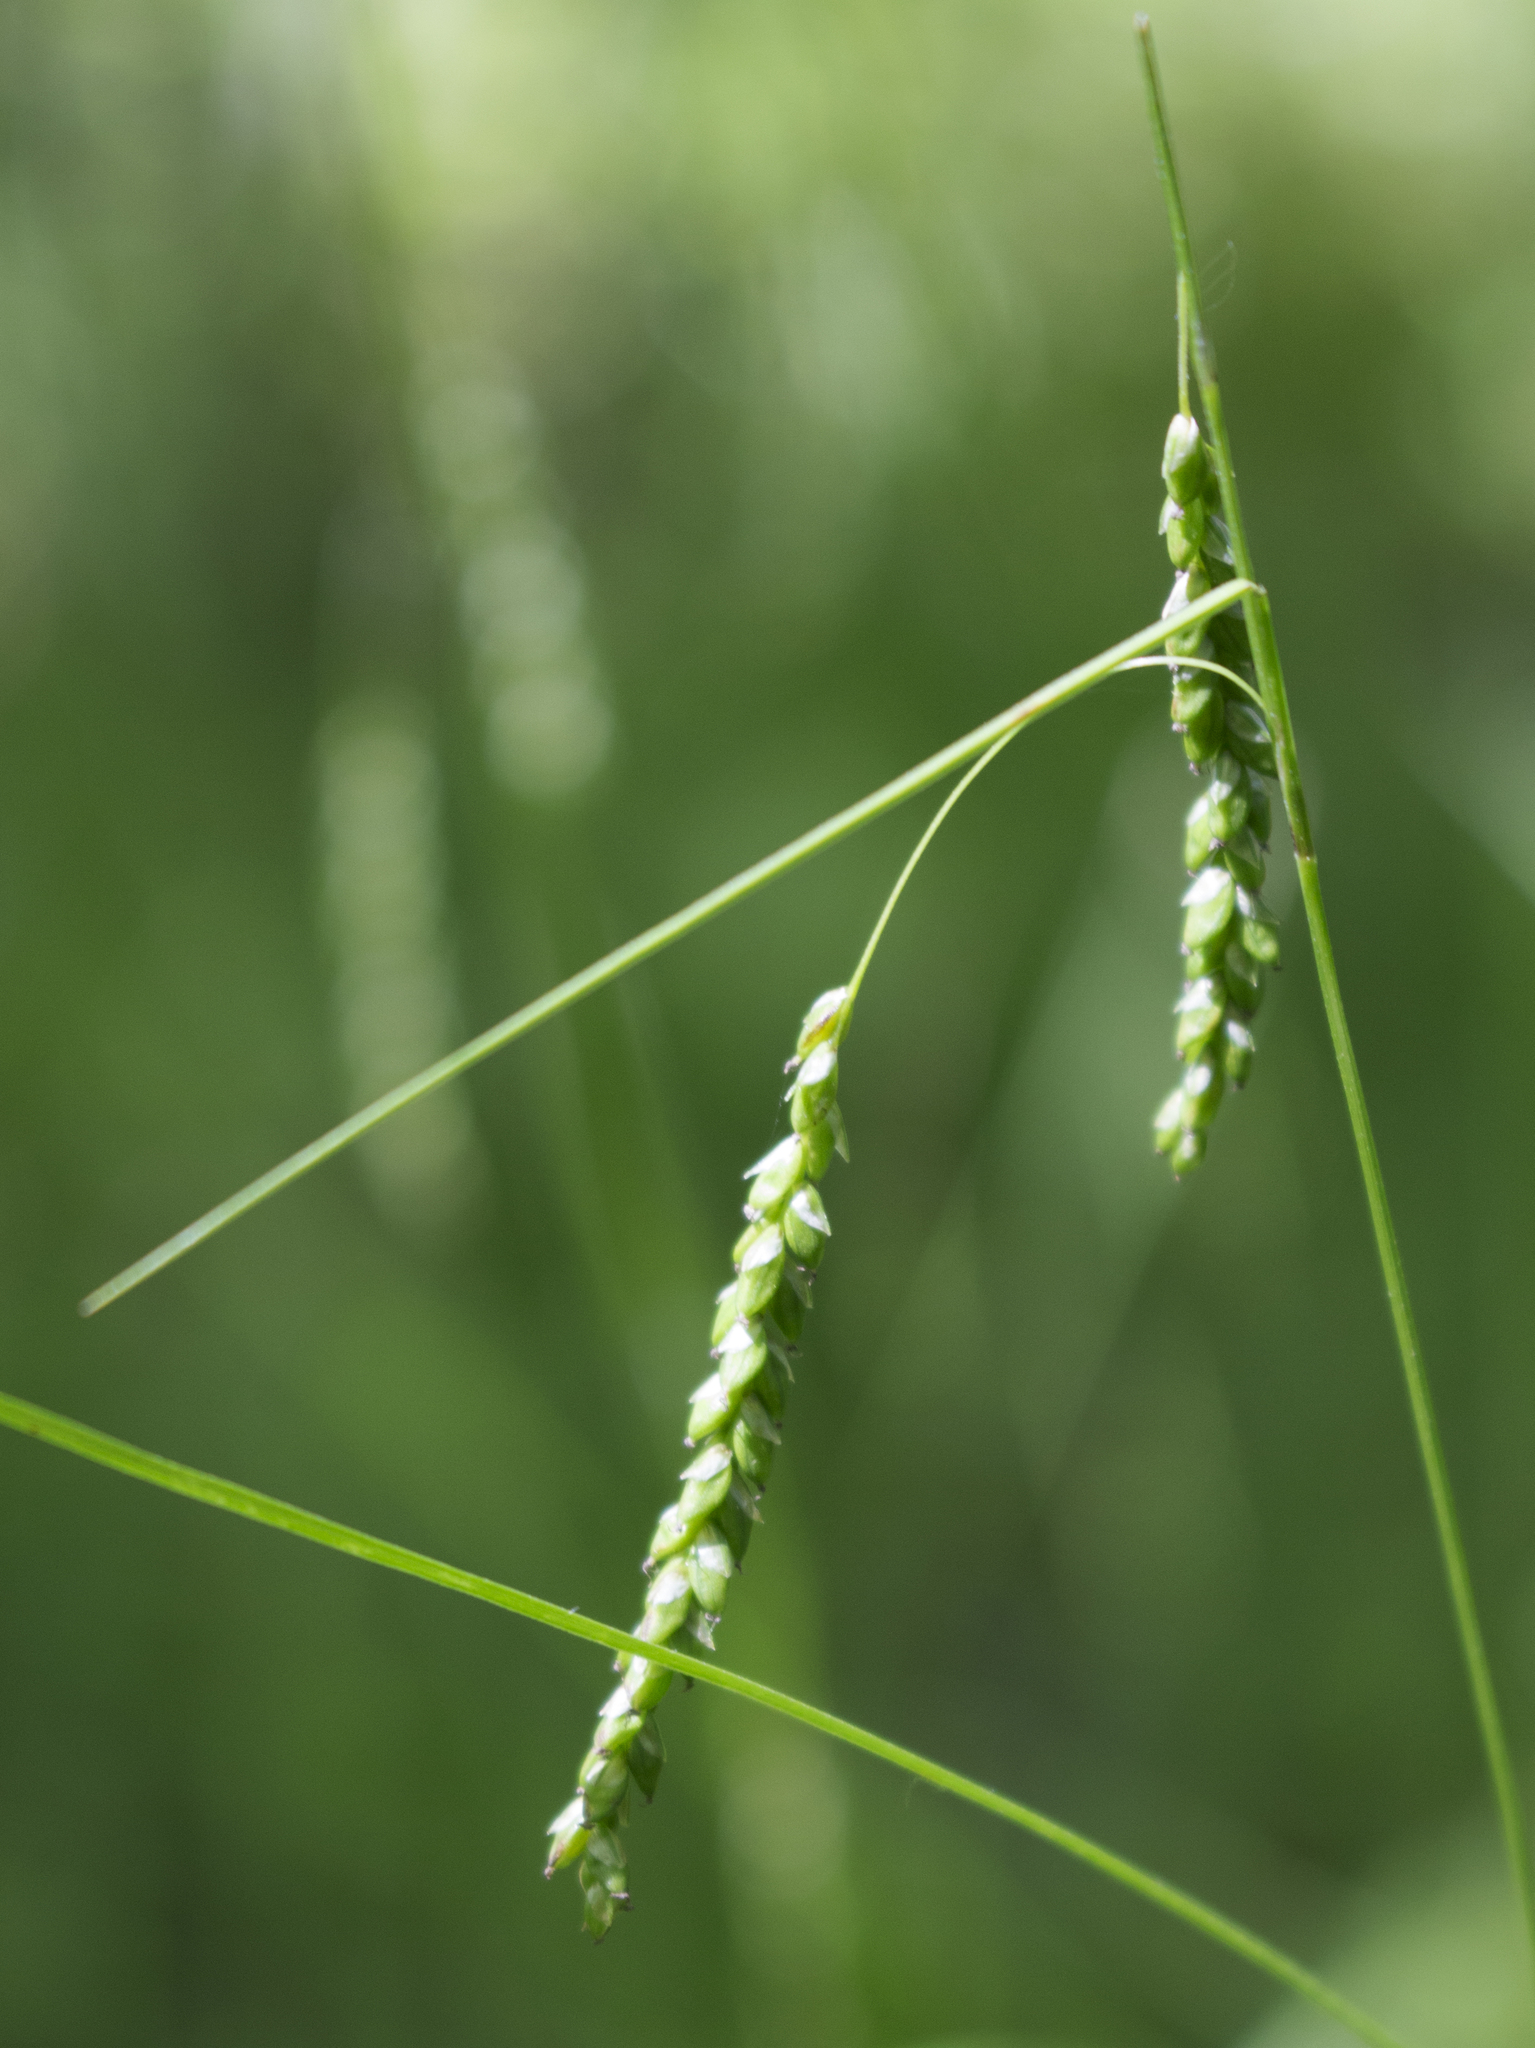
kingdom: Plantae
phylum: Tracheophyta
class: Liliopsida
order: Poales
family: Cyperaceae
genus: Carex
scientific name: Carex gracillima
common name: Graceful sedge
